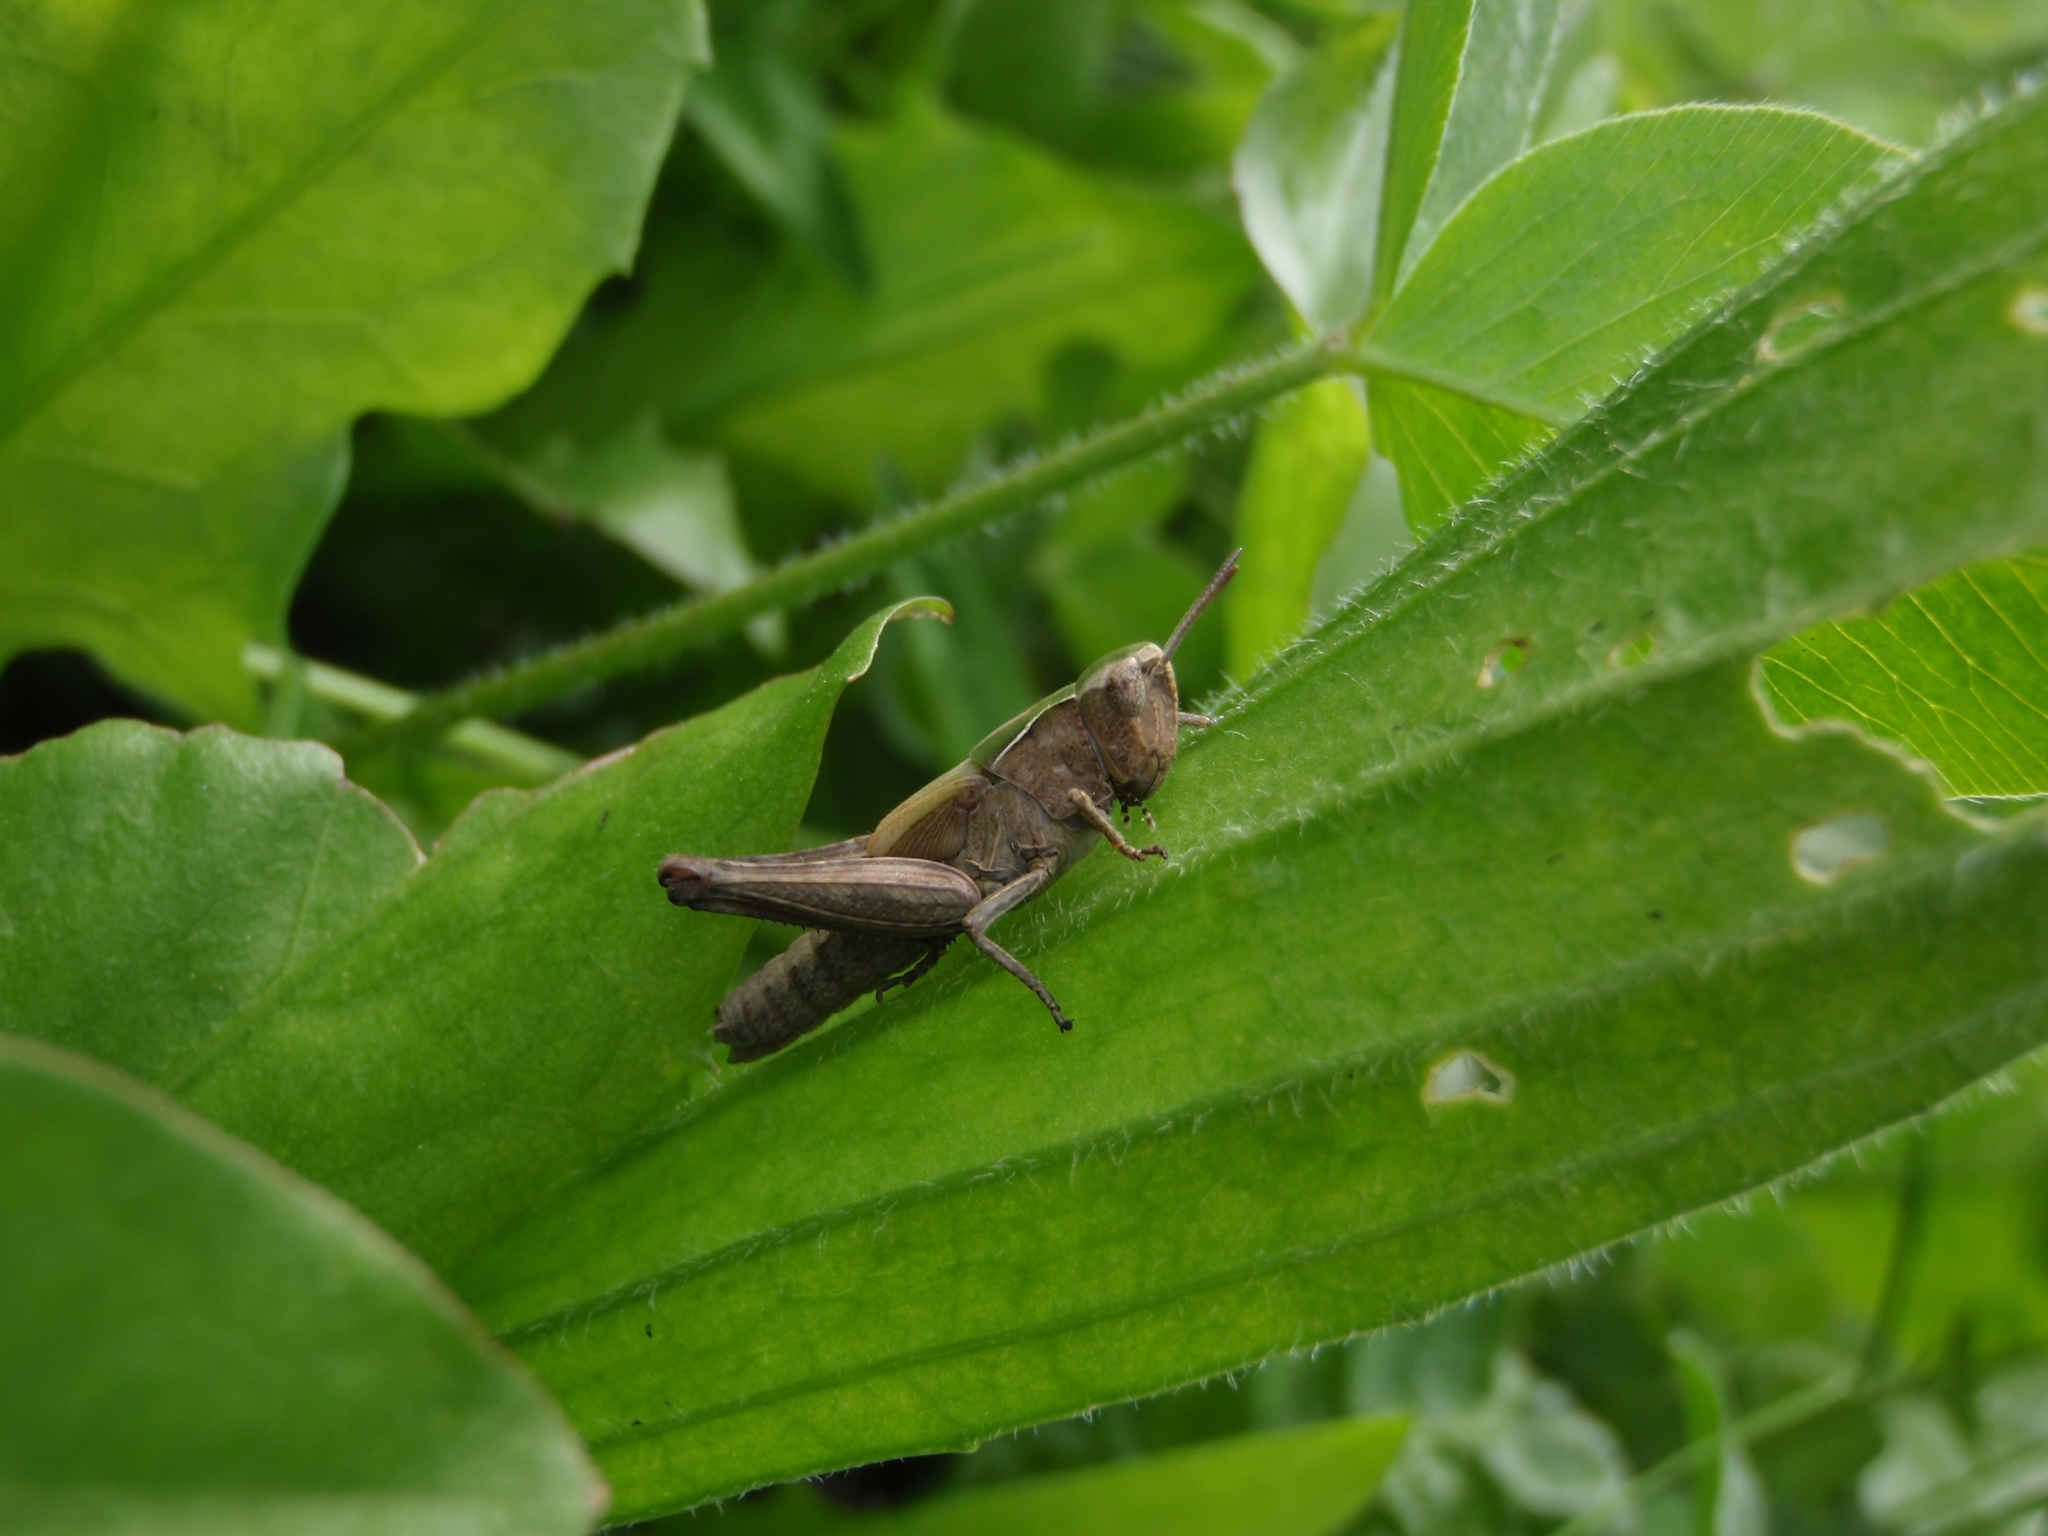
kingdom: Animalia
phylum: Arthropoda
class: Insecta
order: Orthoptera
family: Acrididae
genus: Omocestus
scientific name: Omocestus rufipes
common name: Woodland grasshopper
